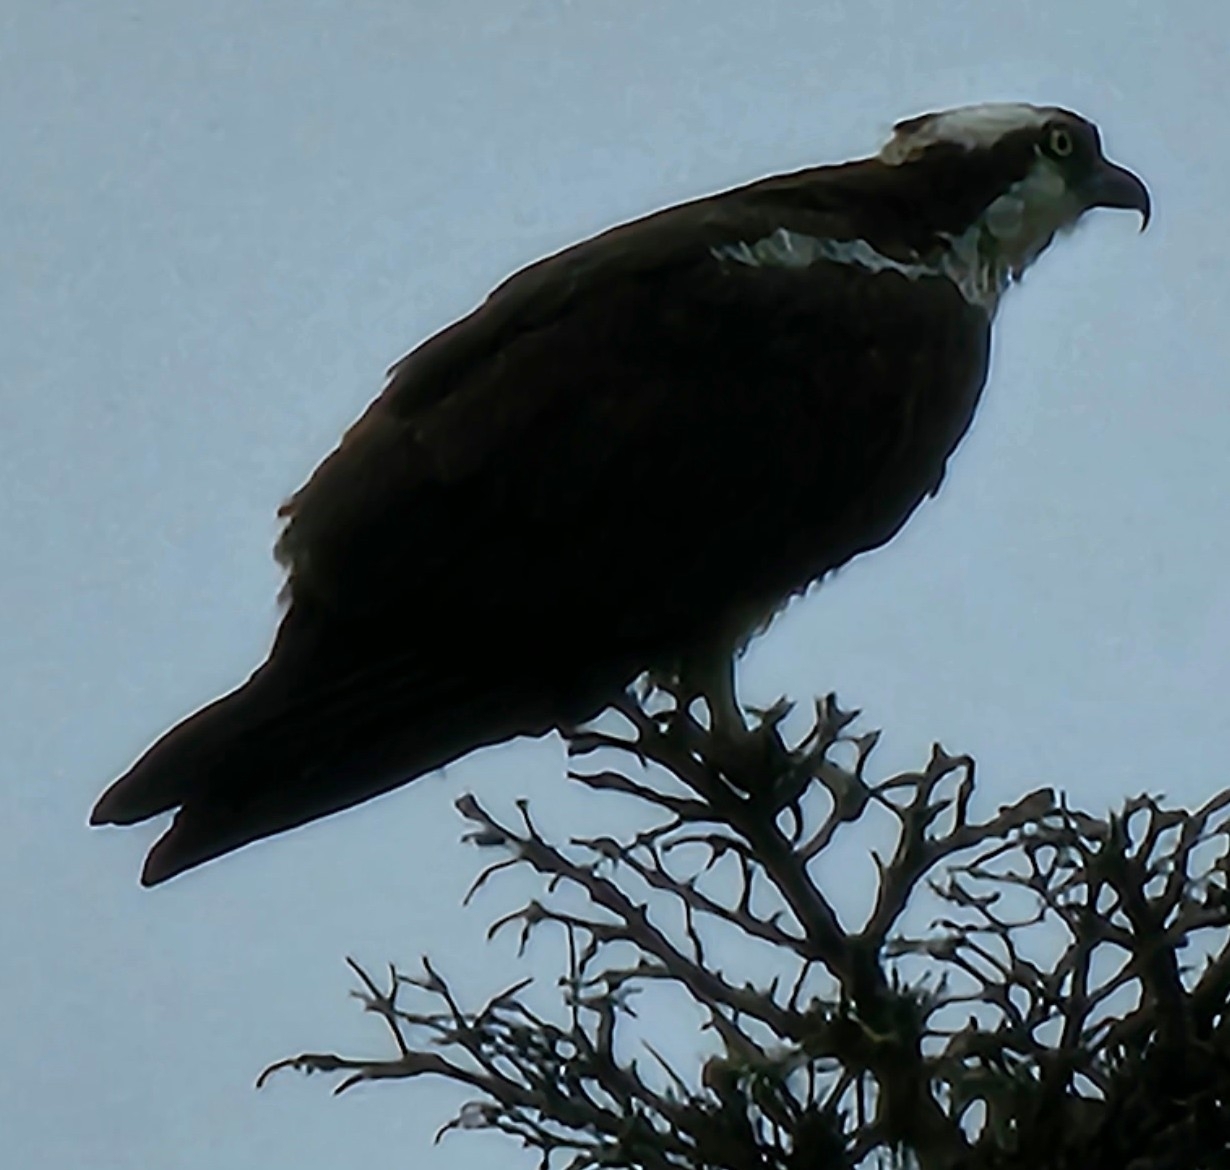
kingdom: Animalia
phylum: Chordata
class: Aves
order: Accipitriformes
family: Pandionidae
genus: Pandion
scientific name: Pandion haliaetus
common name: Osprey
